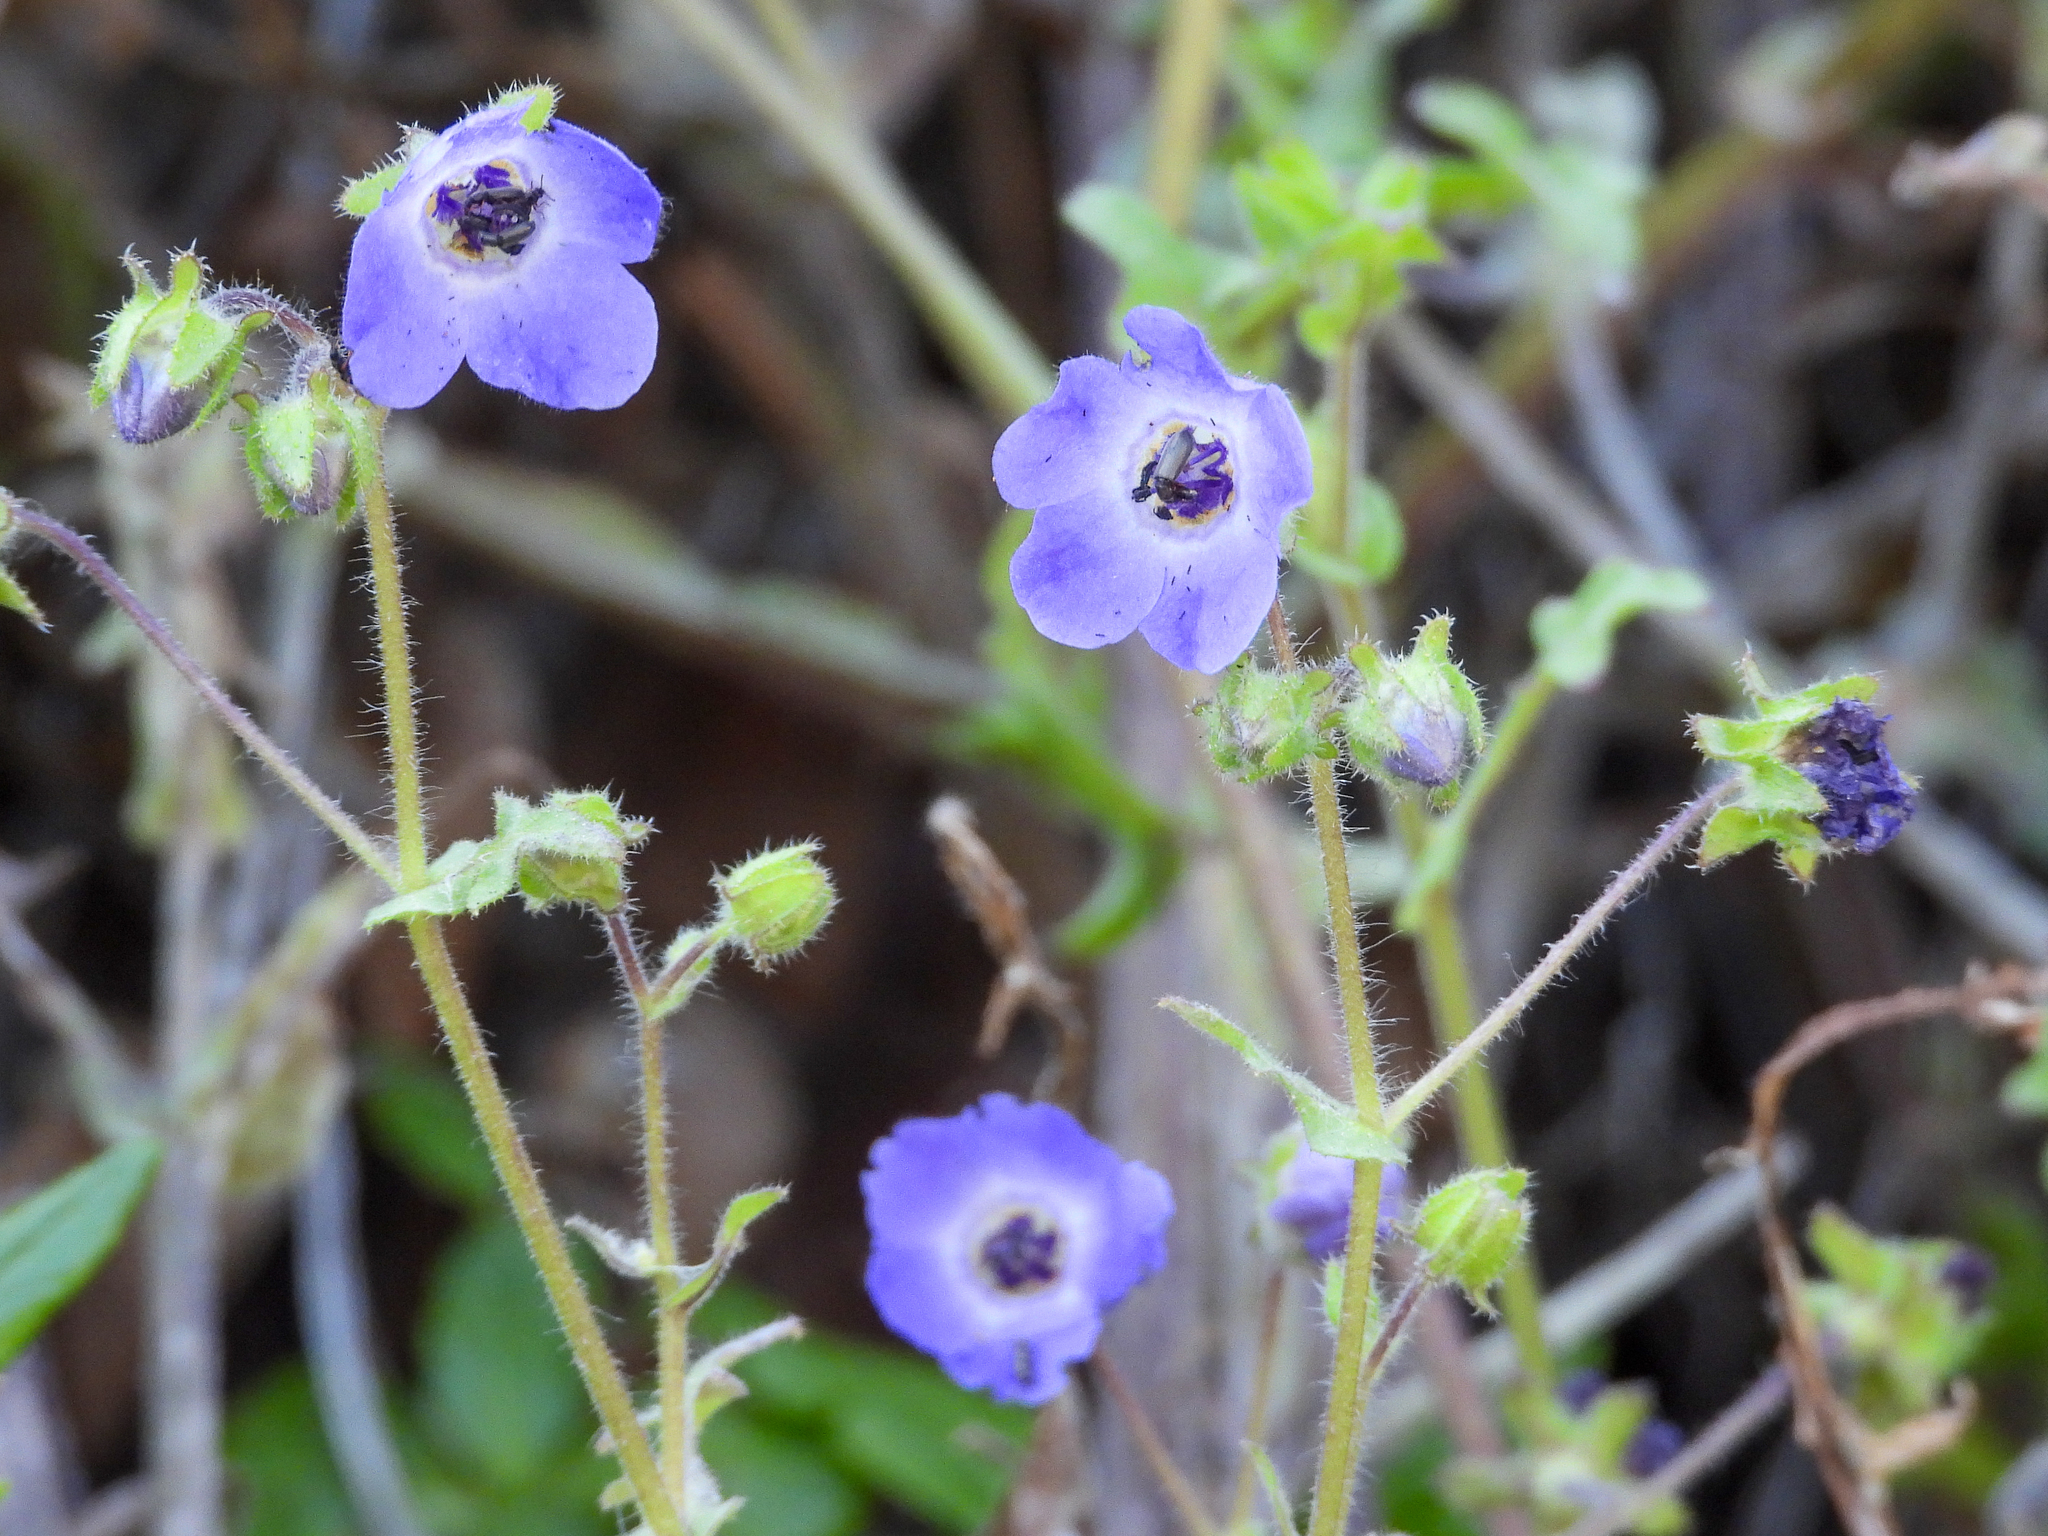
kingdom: Plantae
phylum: Tracheophyta
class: Magnoliopsida
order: Boraginales
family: Hydrophyllaceae
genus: Pholistoma
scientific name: Pholistoma auritum
